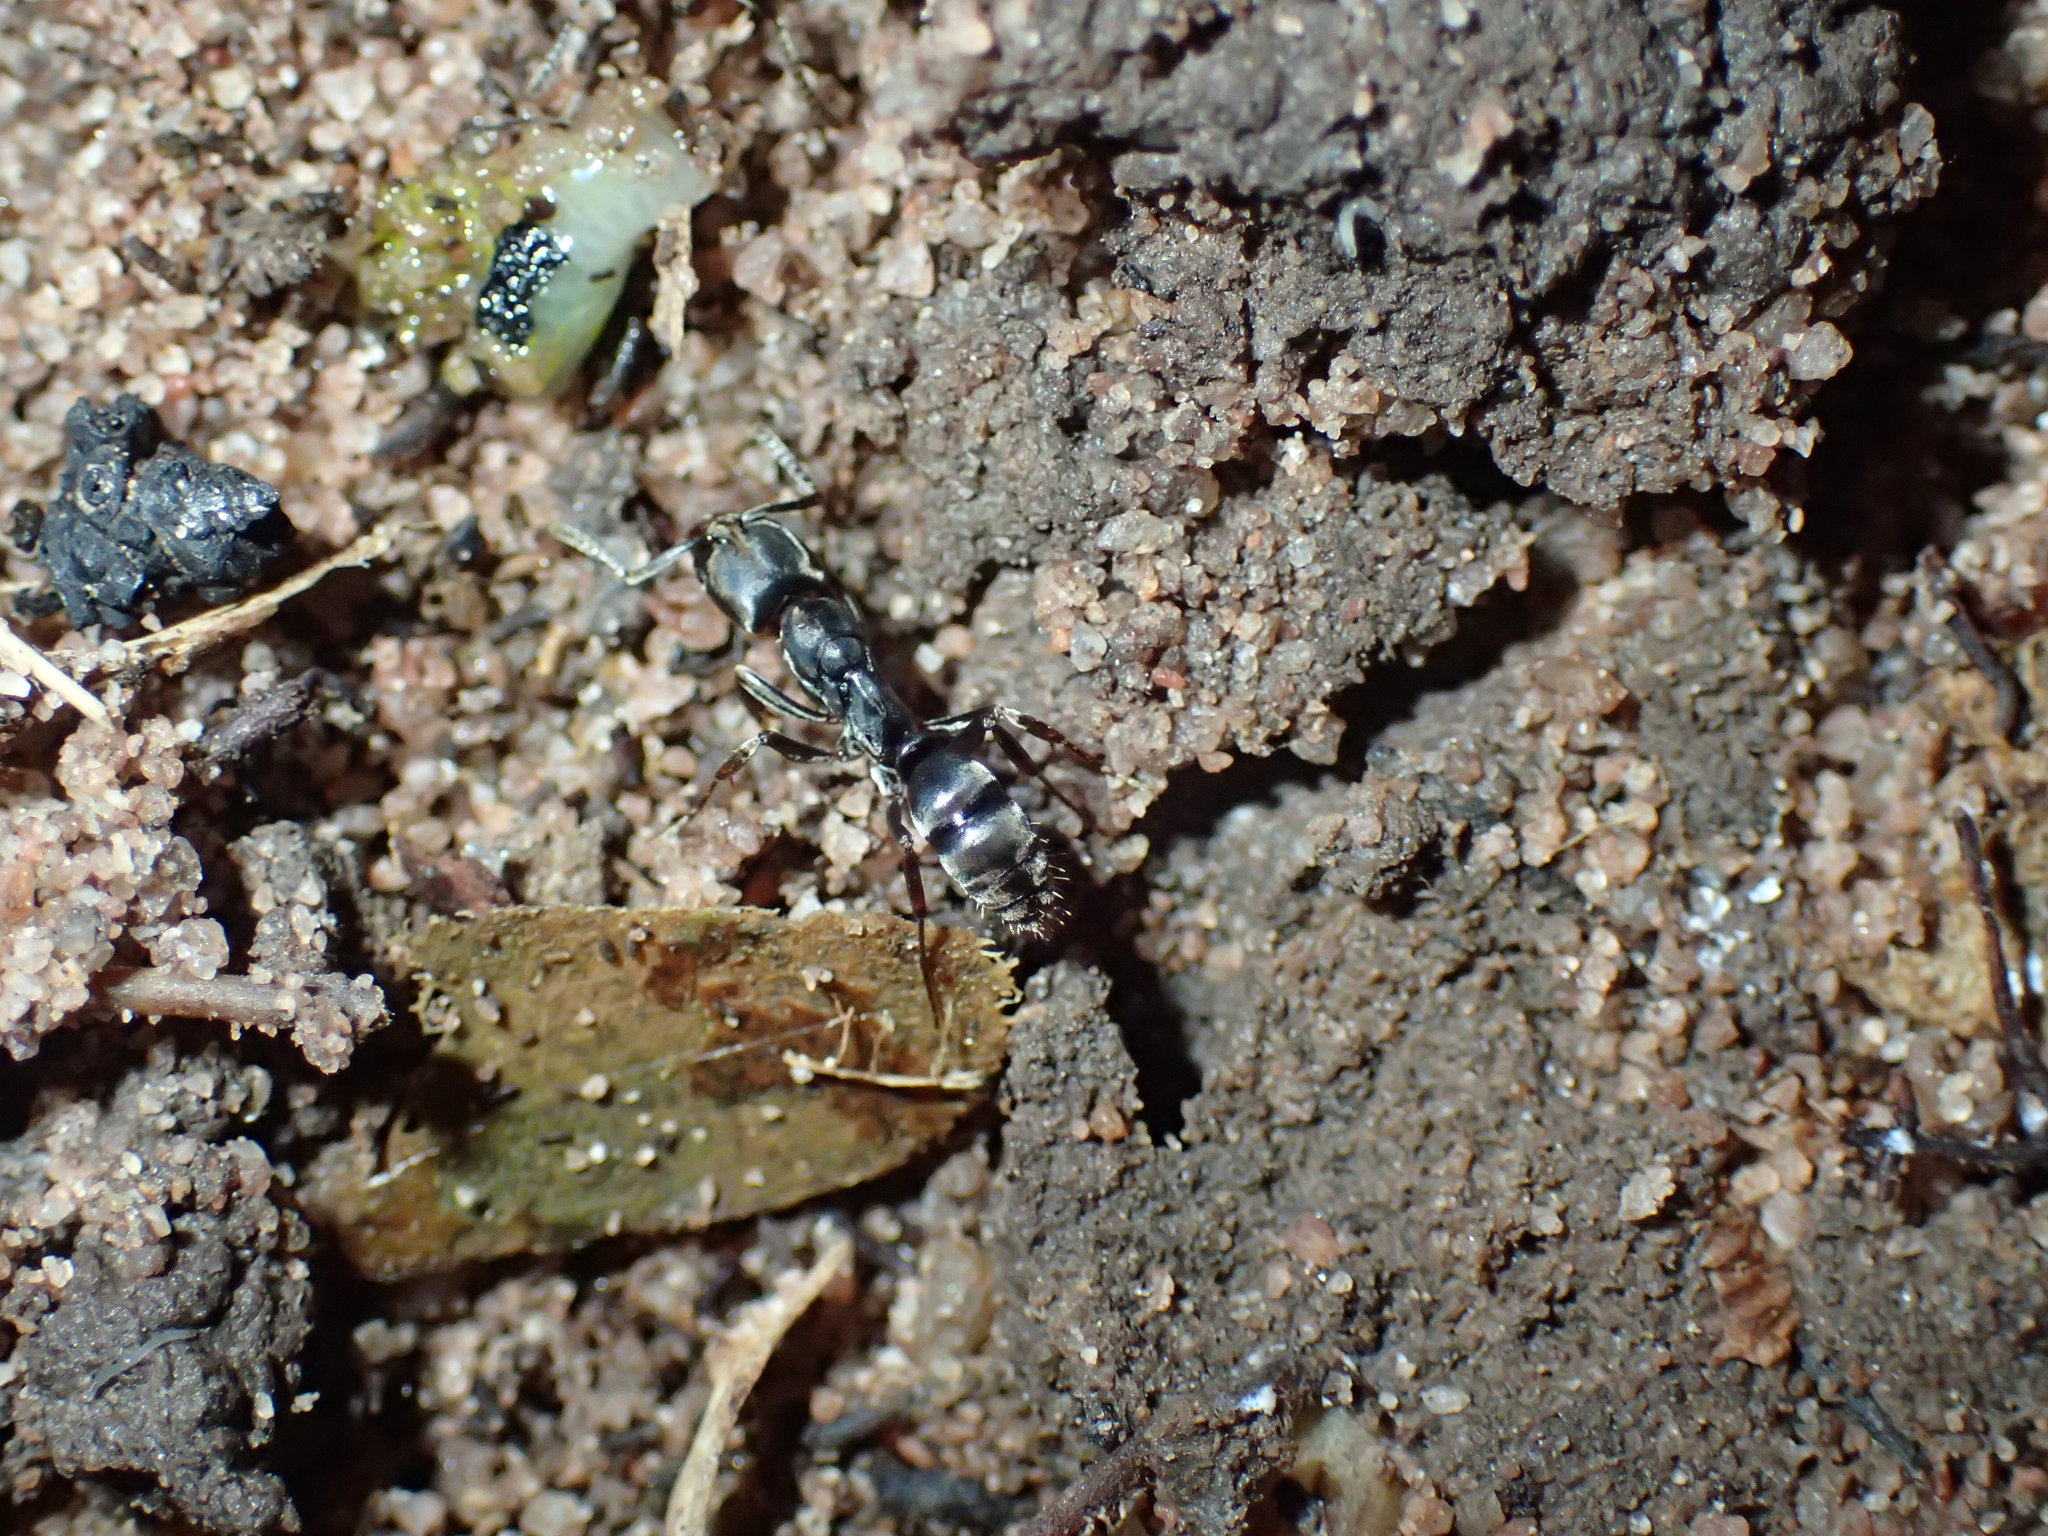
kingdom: Animalia
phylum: Arthropoda
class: Insecta
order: Hymenoptera
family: Formicidae
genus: Mesoponera
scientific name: Mesoponera caffraria
